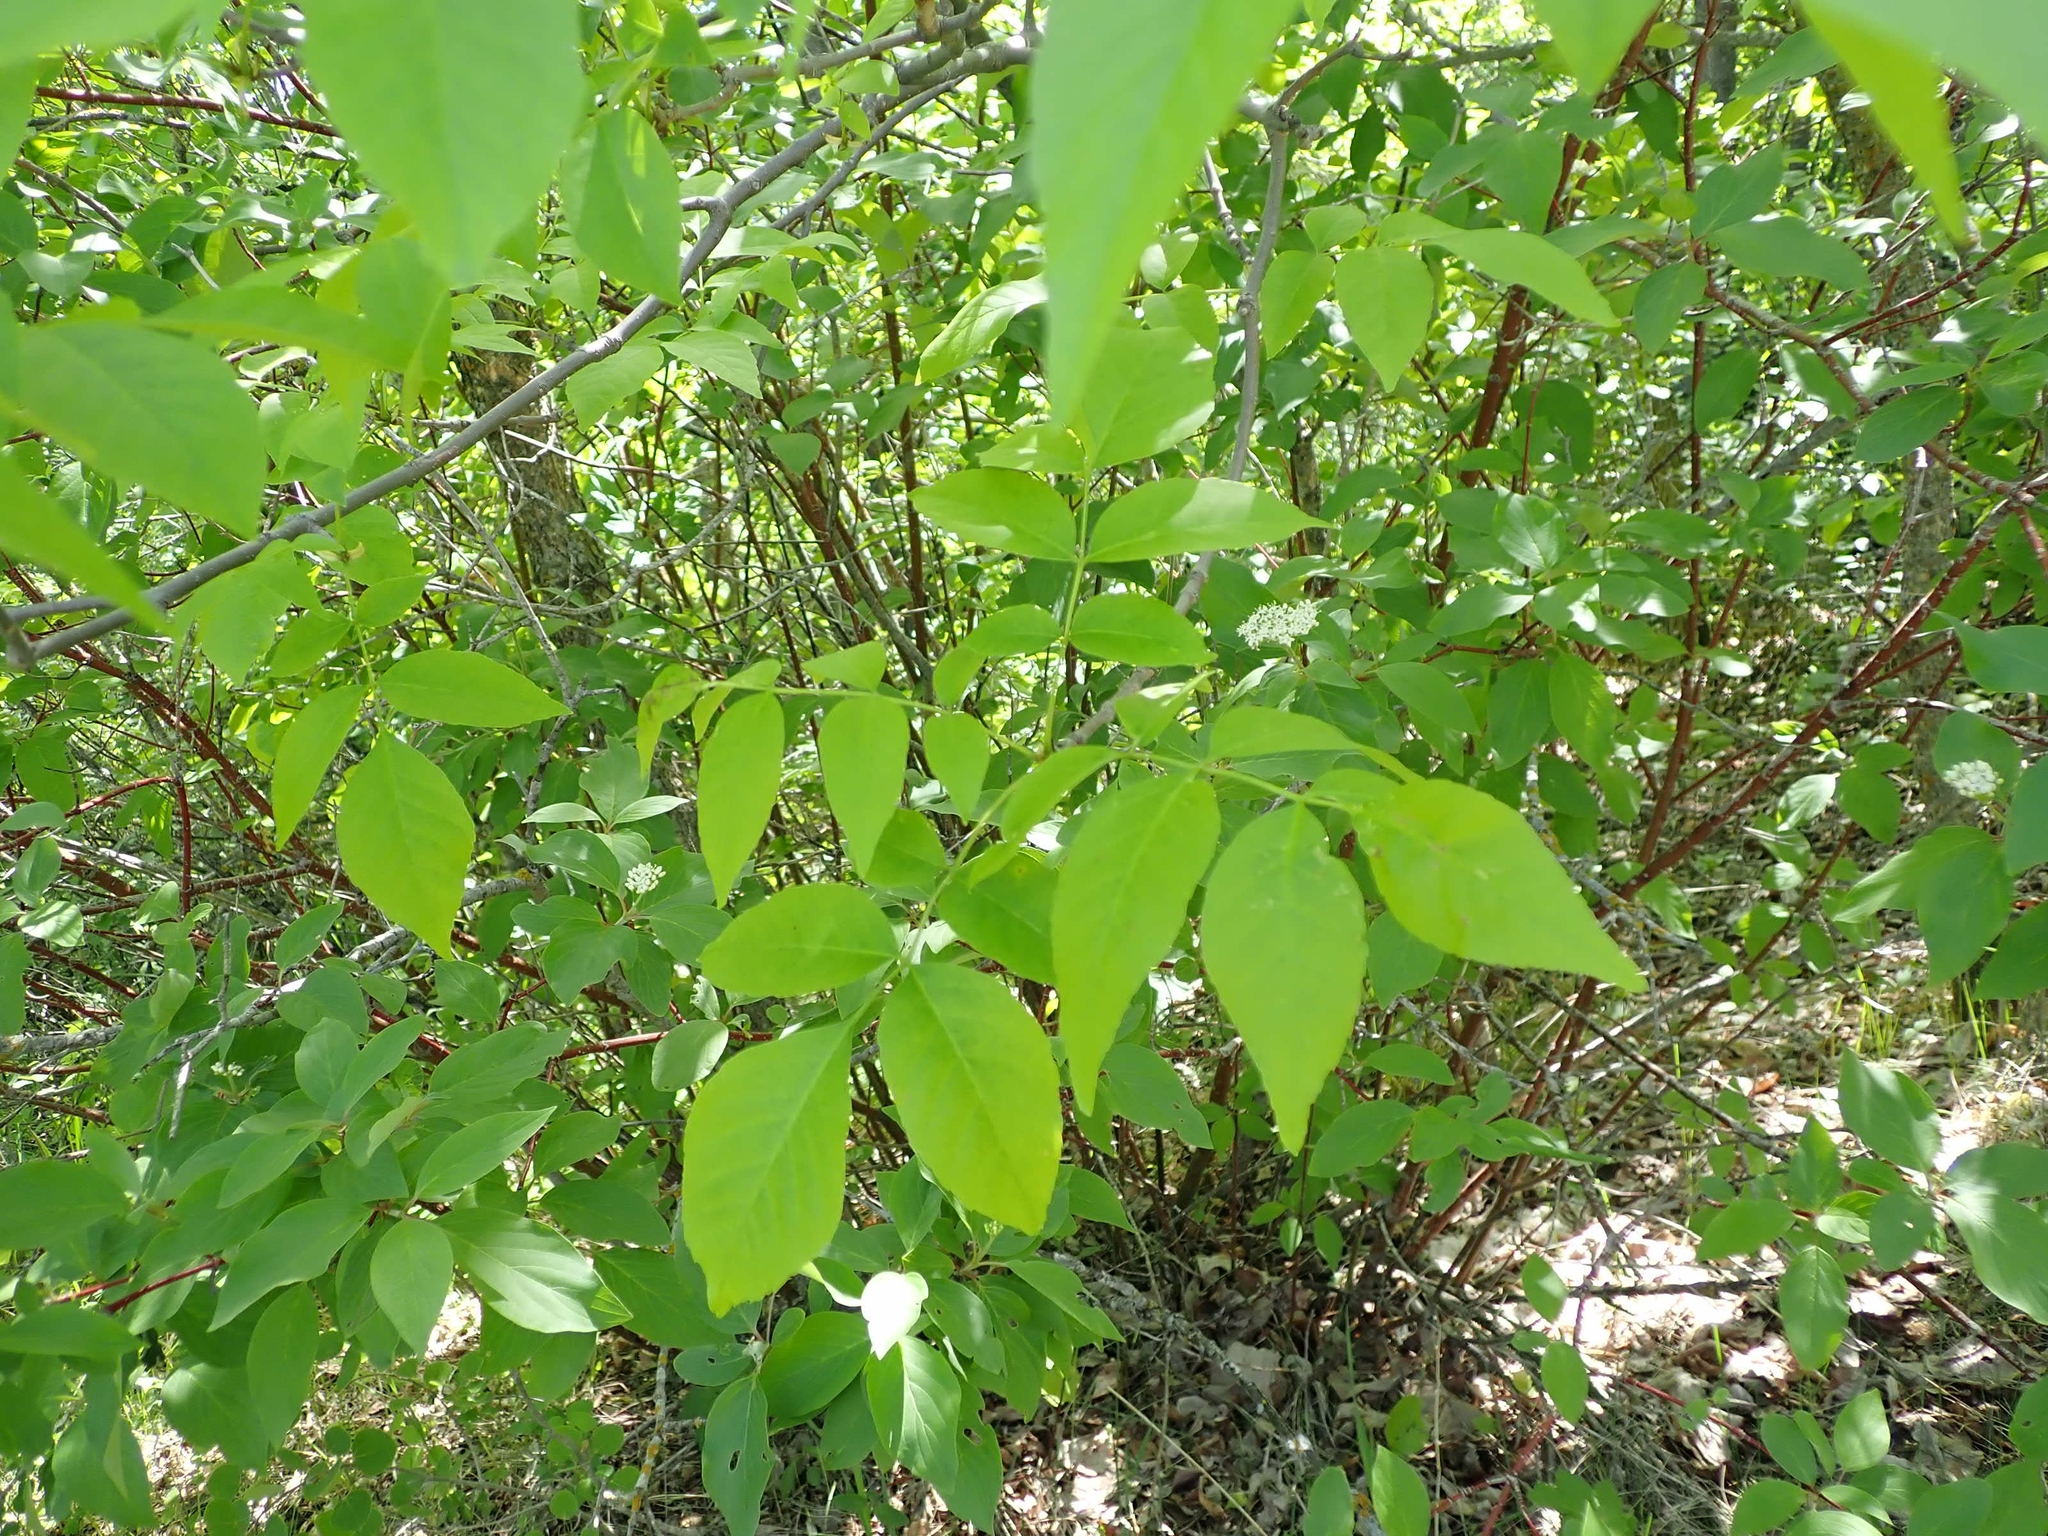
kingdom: Plantae
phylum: Tracheophyta
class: Magnoliopsida
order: Lamiales
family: Oleaceae
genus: Fraxinus
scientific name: Fraxinus pennsylvanica
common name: Green ash
